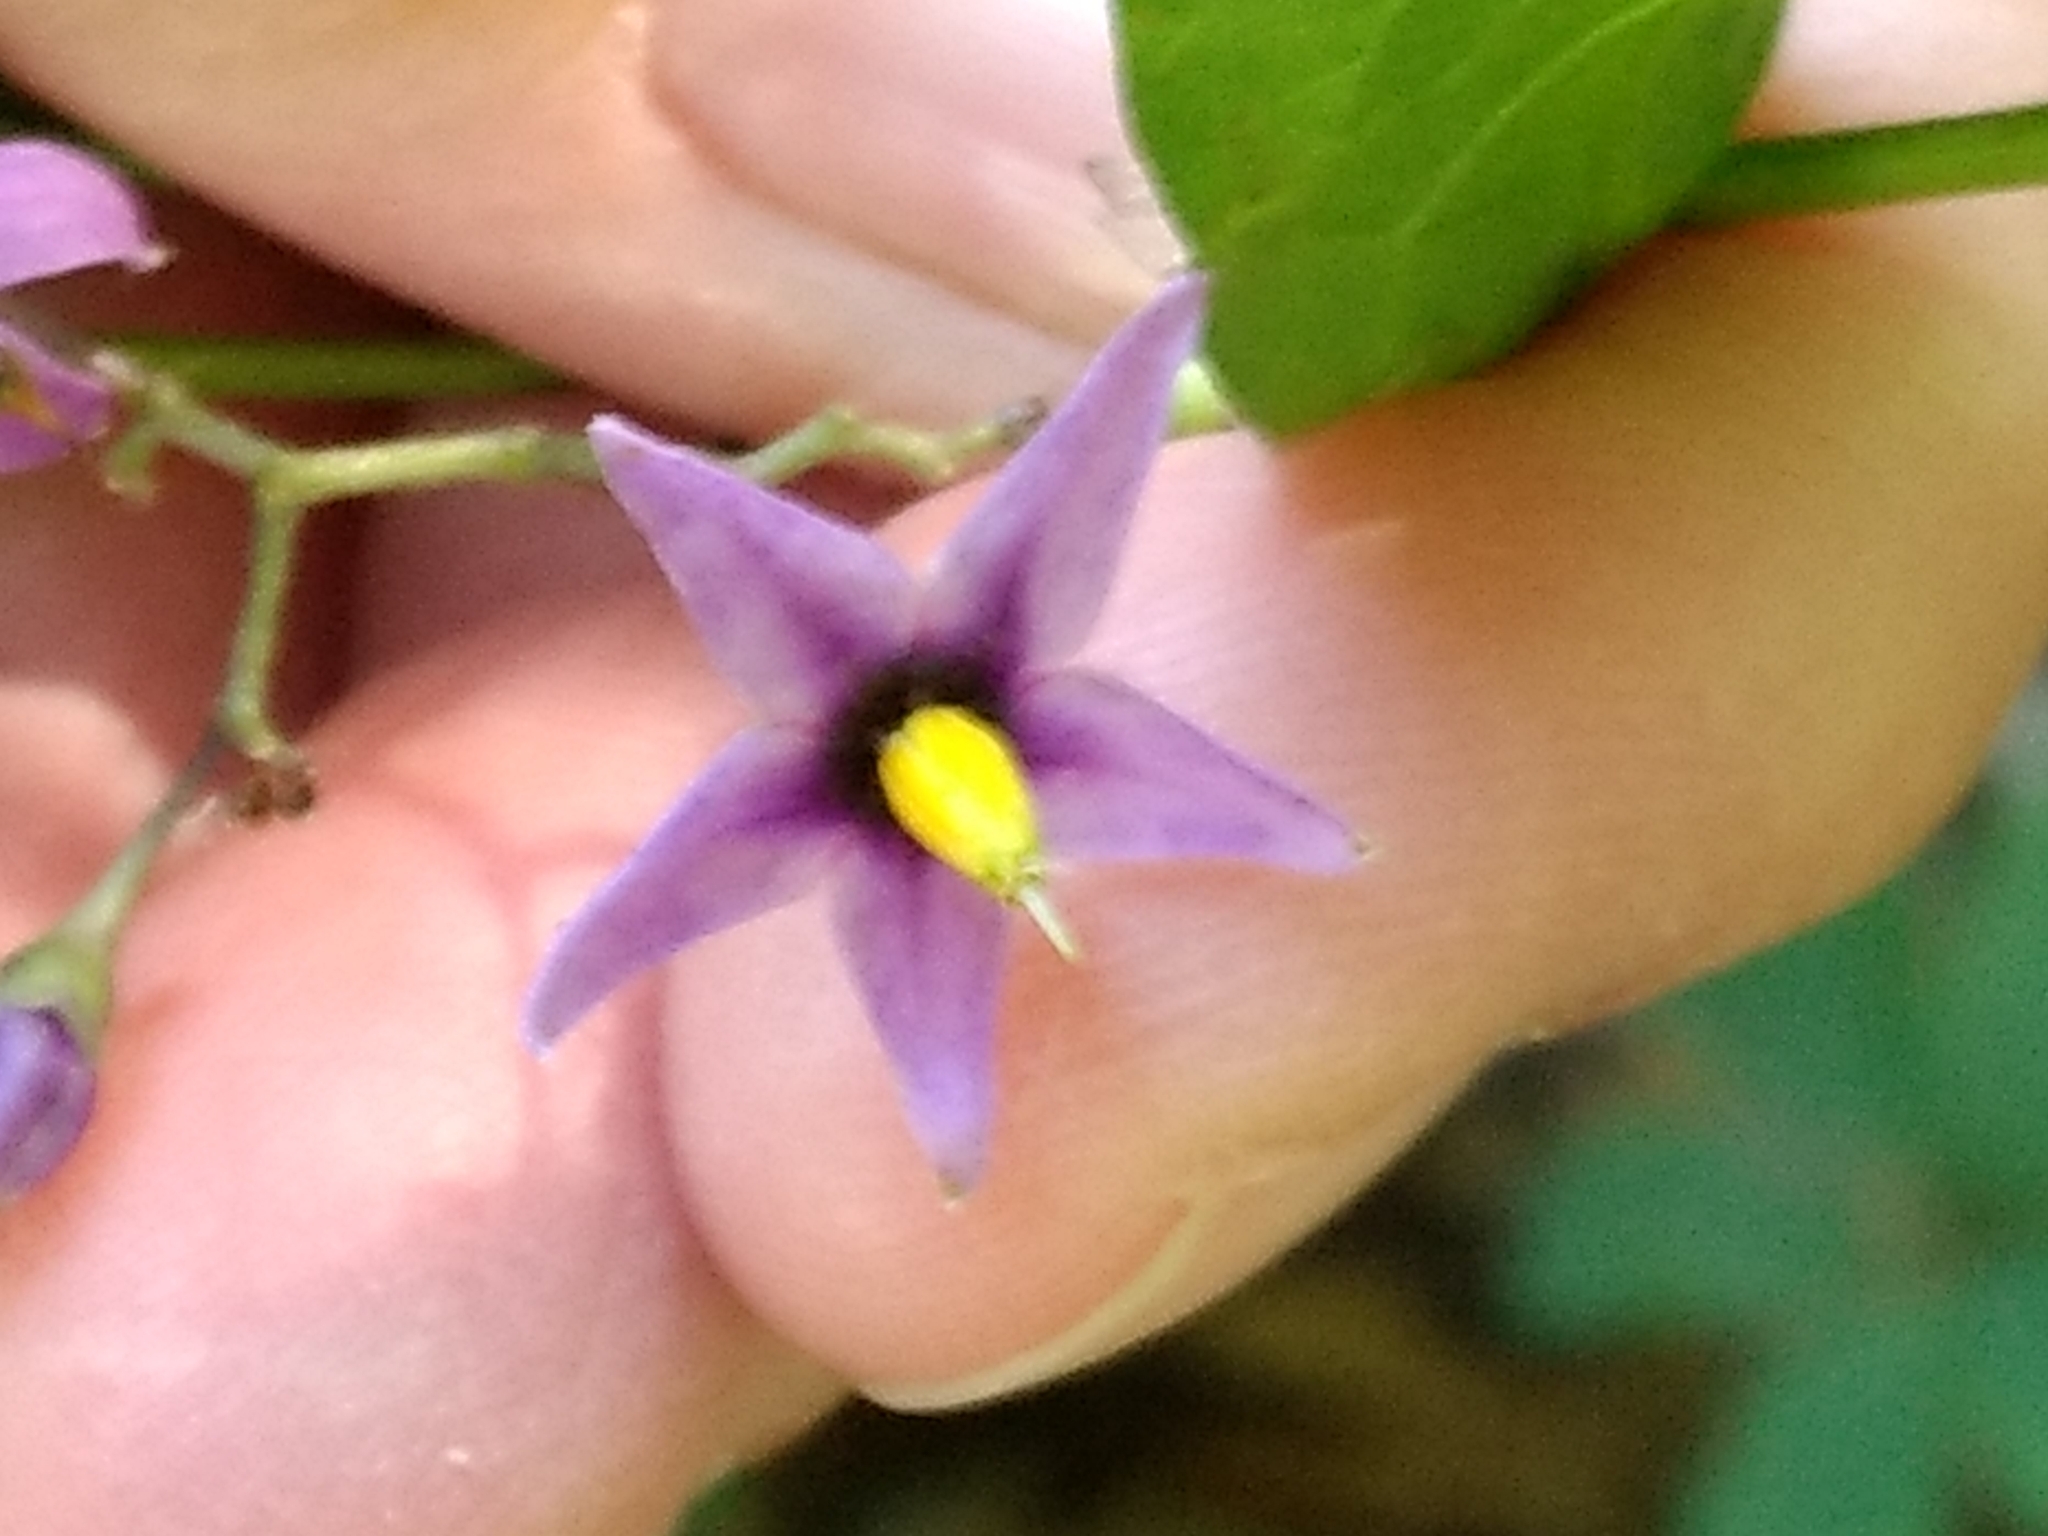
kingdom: Plantae
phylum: Tracheophyta
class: Magnoliopsida
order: Solanales
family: Solanaceae
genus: Solanum
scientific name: Solanum dulcamara
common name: Climbing nightshade
